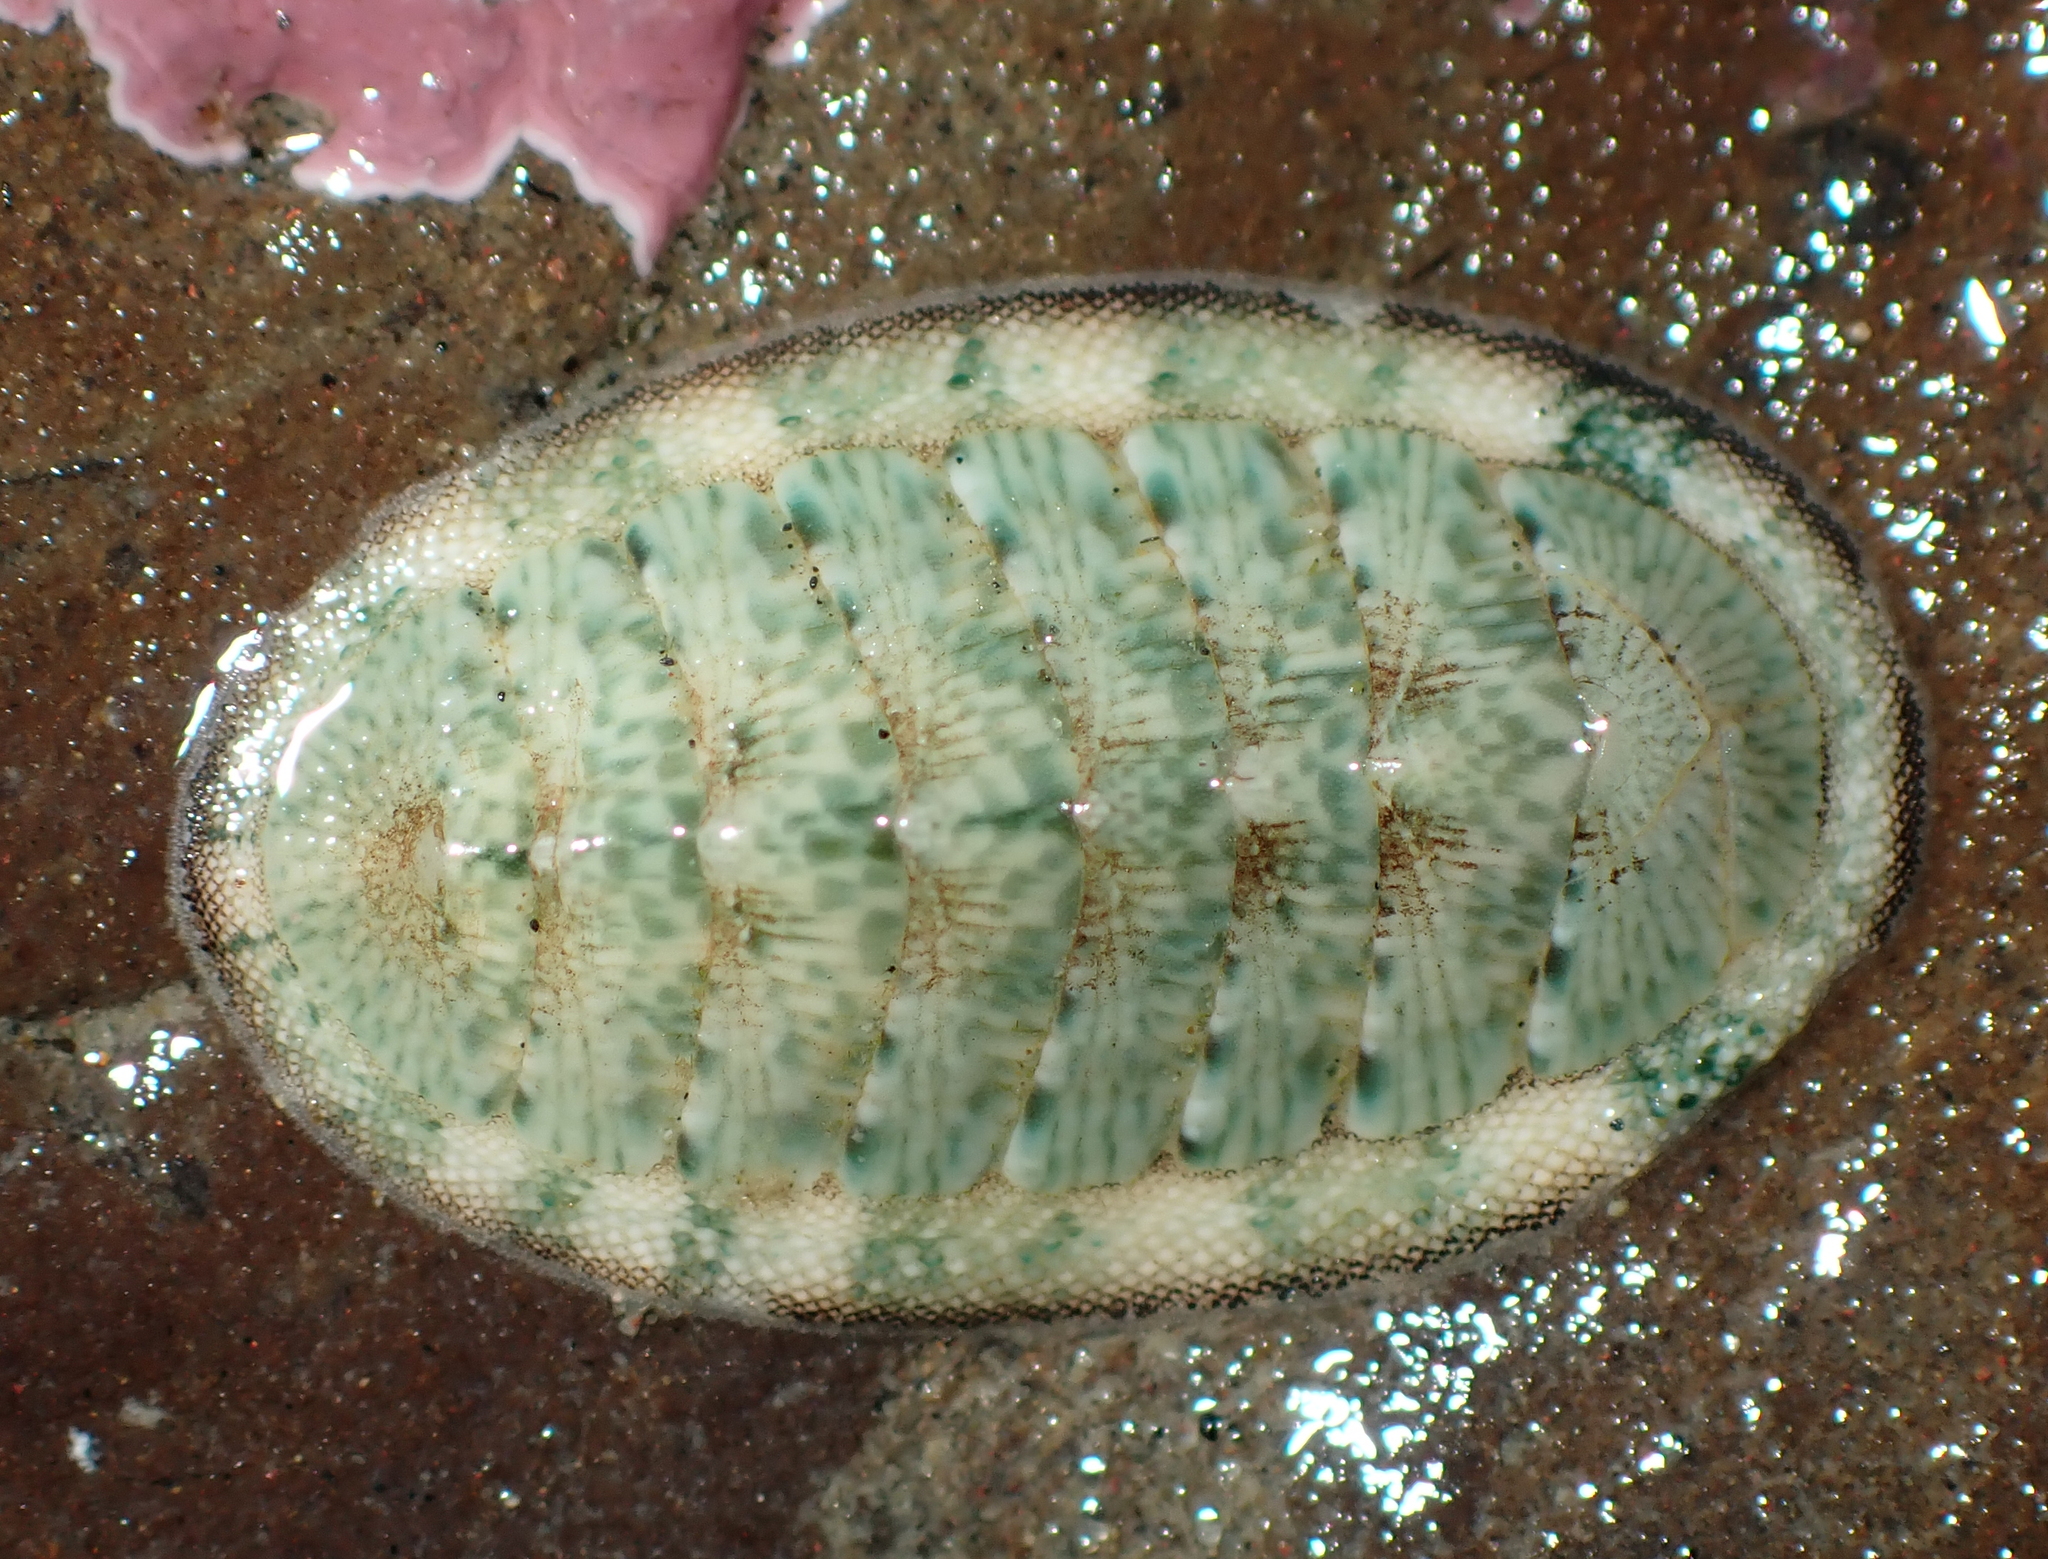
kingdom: Animalia
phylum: Mollusca
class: Polyplacophora
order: Chitonida
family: Chitonidae
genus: Rhyssoplax
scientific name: Rhyssoplax stangeri
